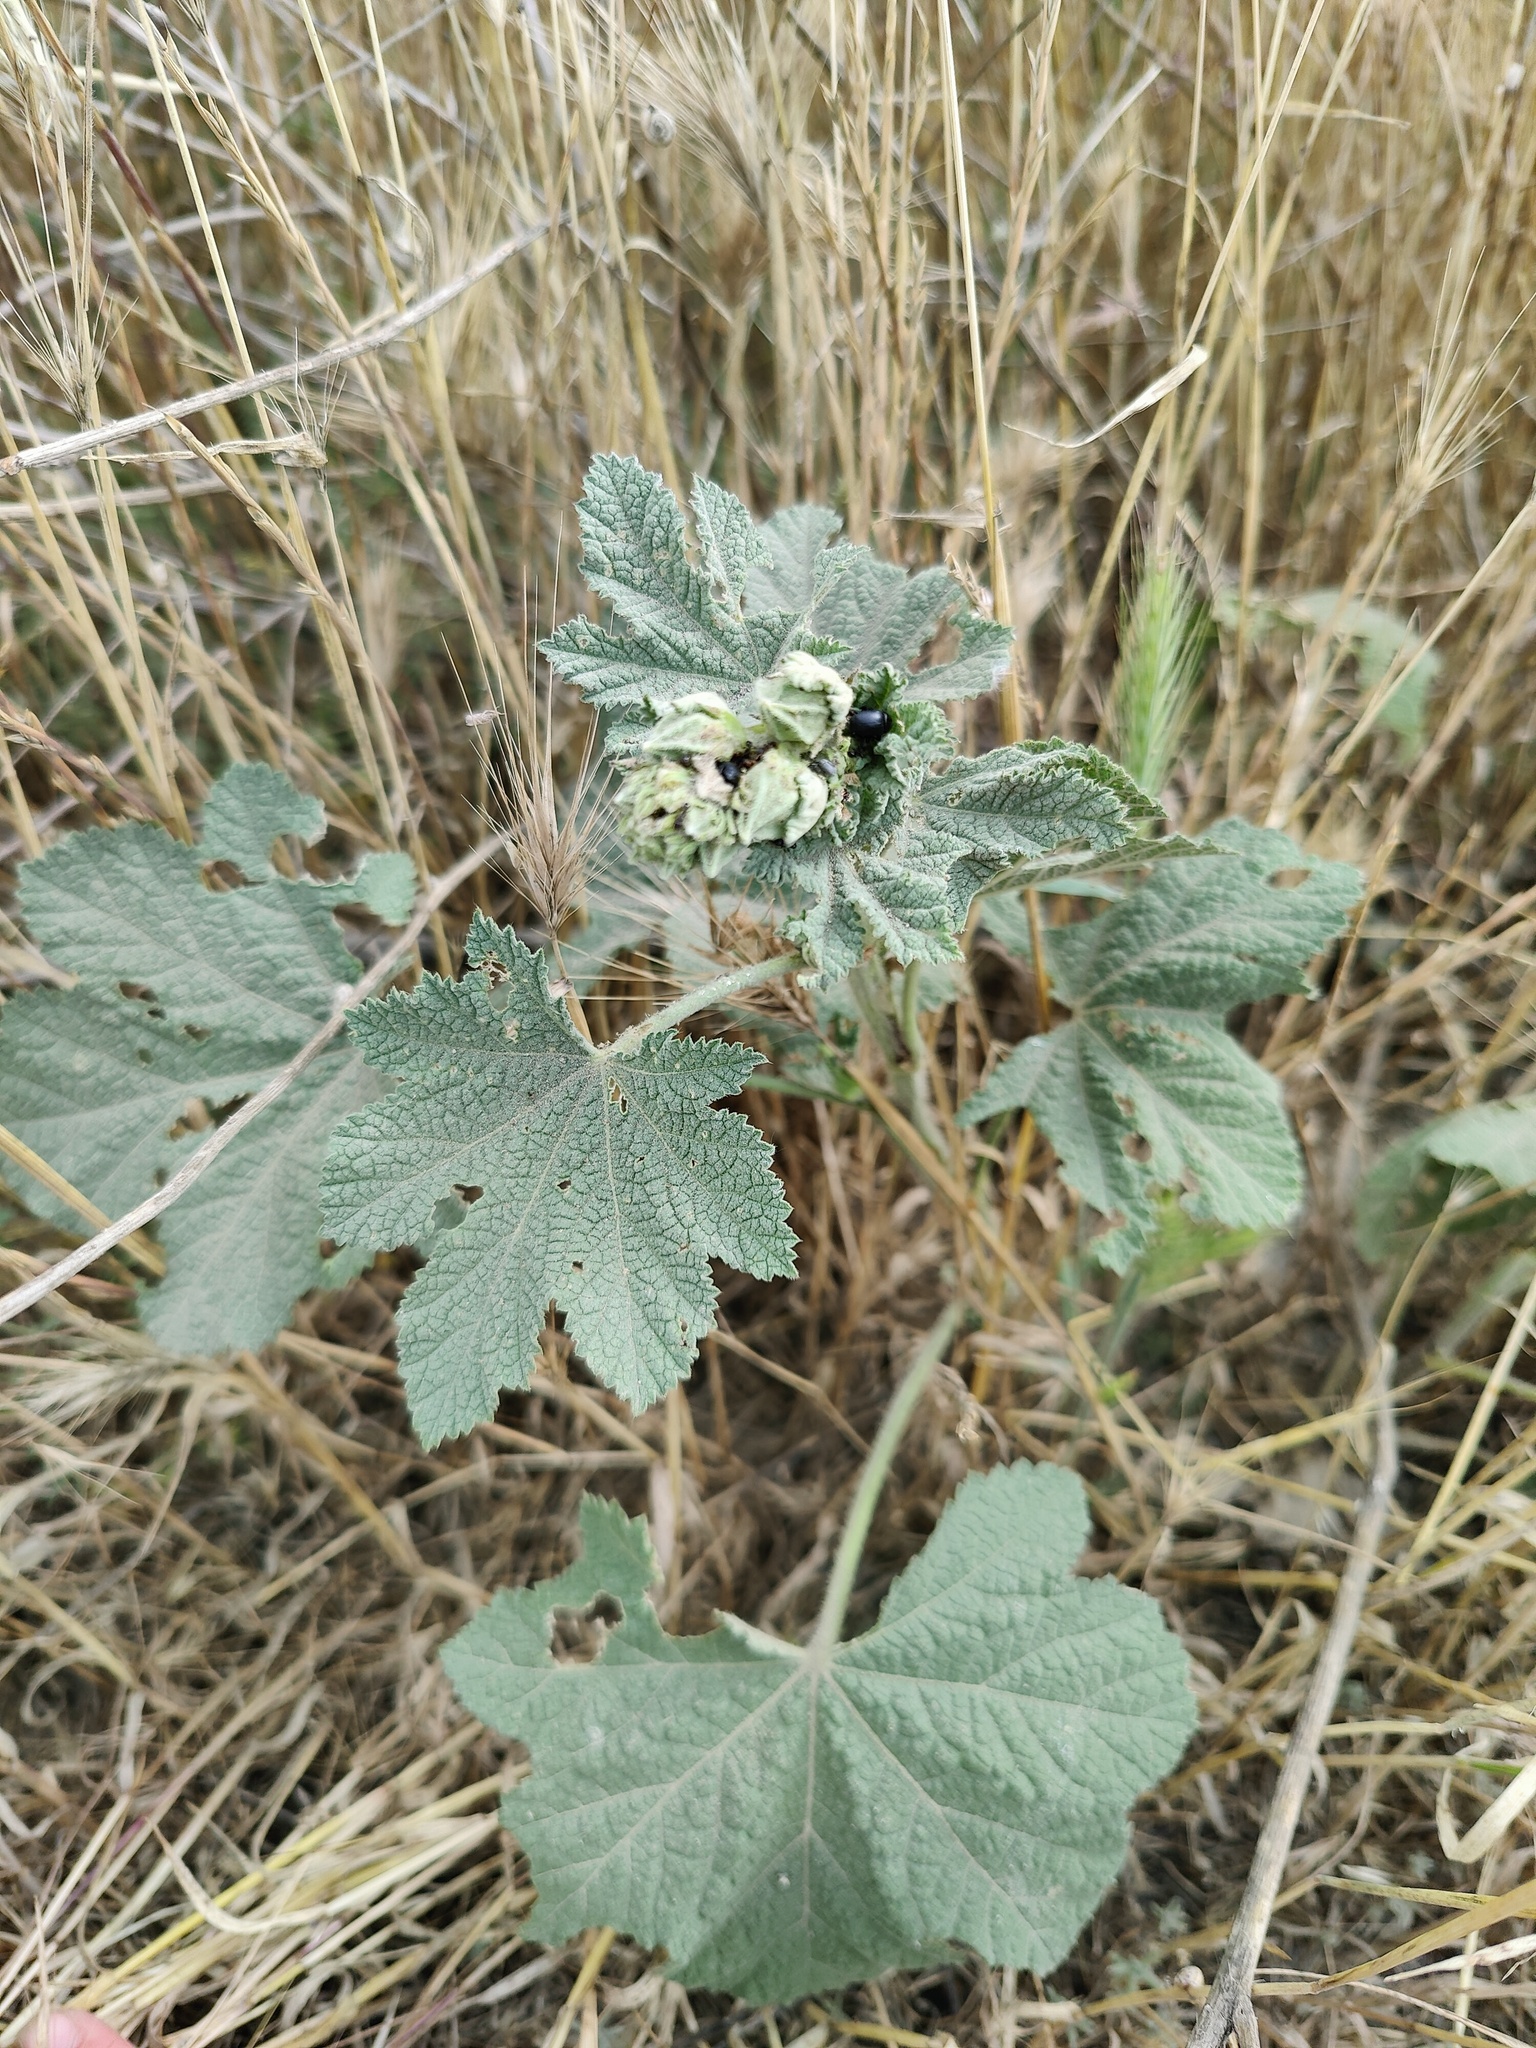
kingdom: Plantae
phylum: Tracheophyta
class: Magnoliopsida
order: Malvales
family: Malvaceae
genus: Alcea
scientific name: Alcea rugosa
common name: Russian hollyhock
